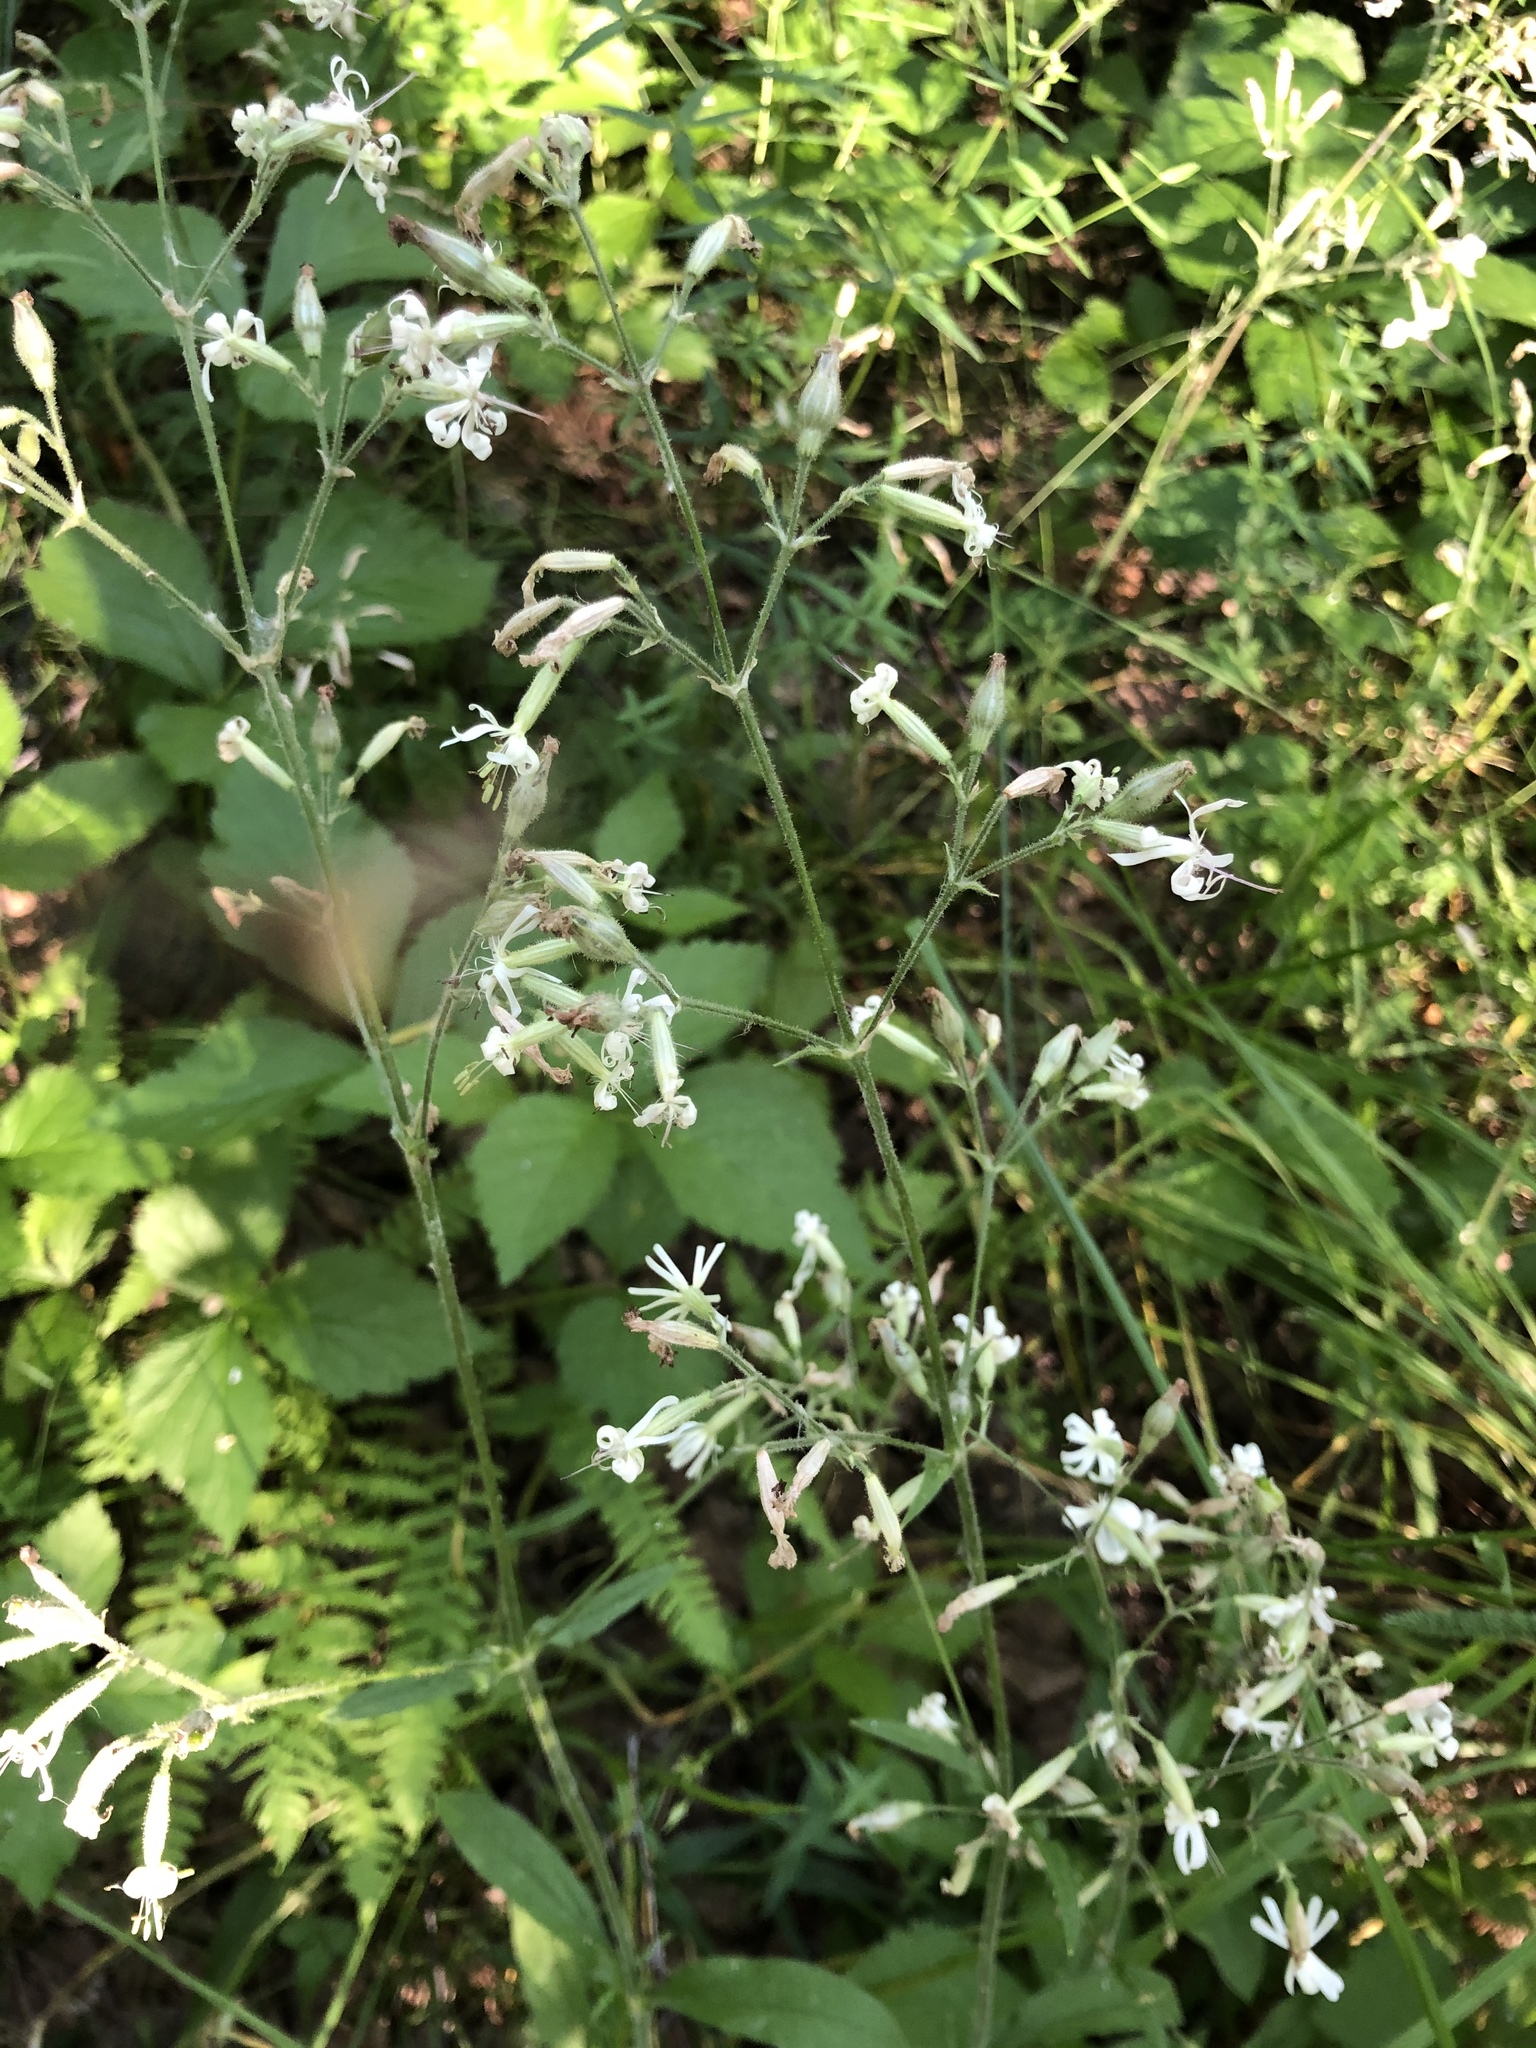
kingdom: Plantae
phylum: Tracheophyta
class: Magnoliopsida
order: Caryophyllales
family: Caryophyllaceae
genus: Silene
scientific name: Silene nutans
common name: Nottingham catchfly
